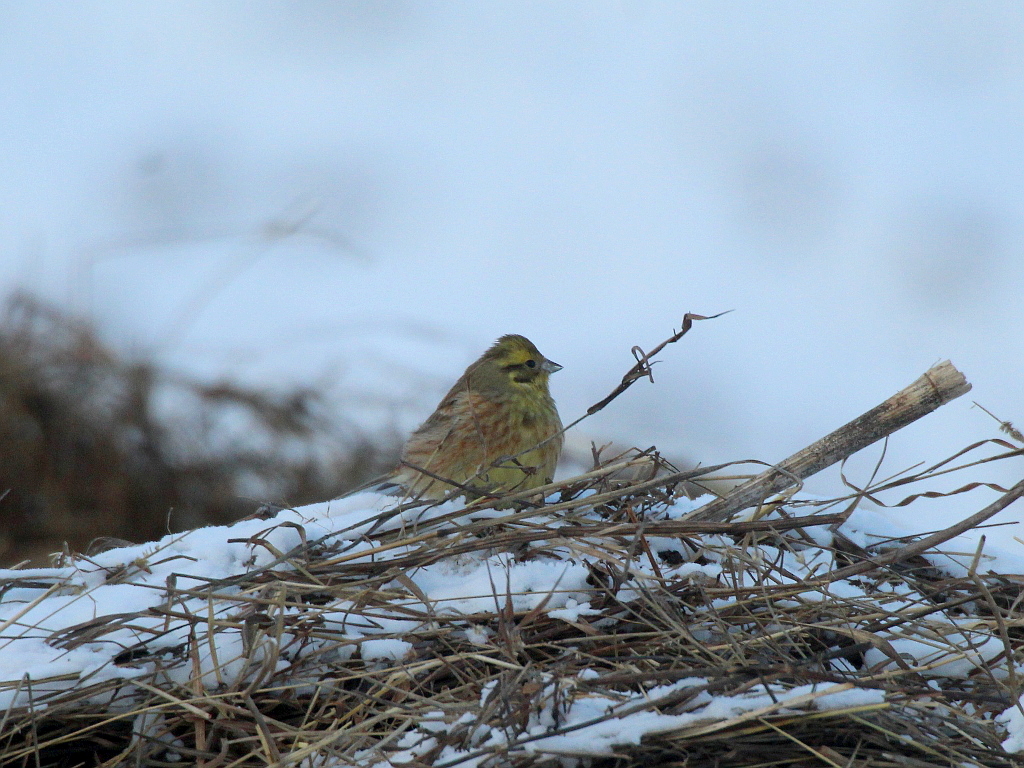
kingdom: Animalia
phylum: Chordata
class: Aves
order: Passeriformes
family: Emberizidae
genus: Emberiza
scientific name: Emberiza citrinella
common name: Yellowhammer
